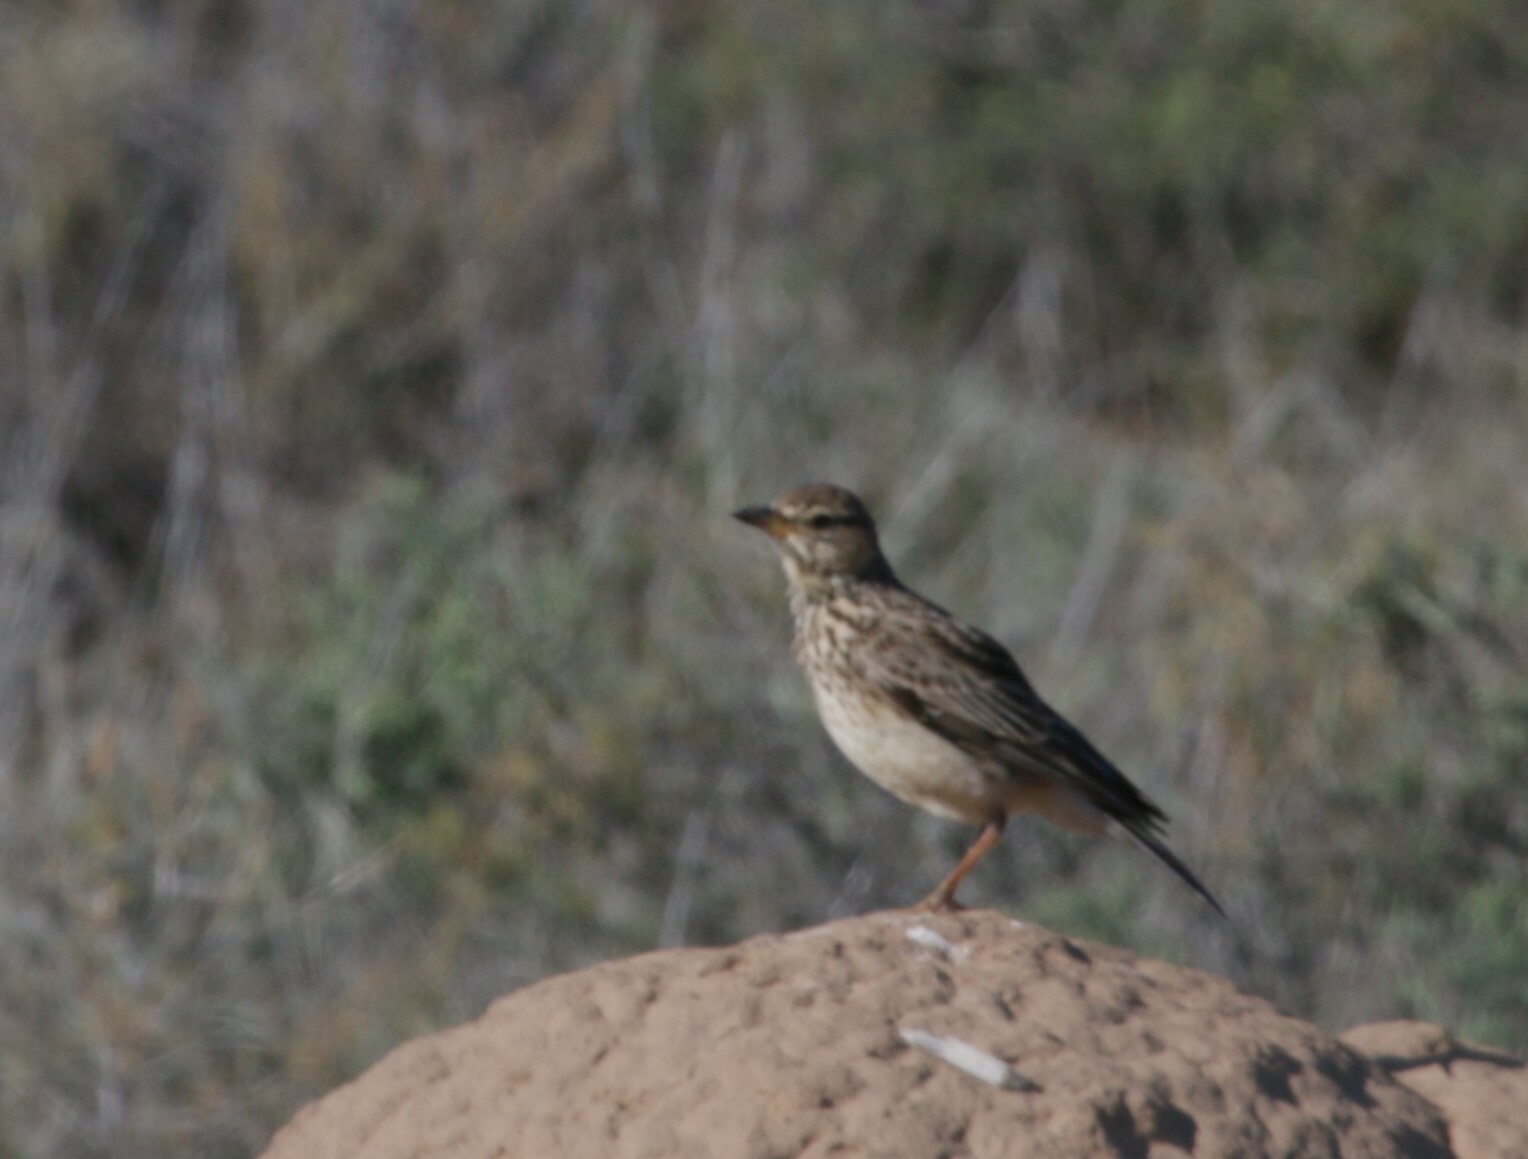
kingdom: Animalia
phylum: Chordata
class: Aves
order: Passeriformes
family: Alaudidae
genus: Galerida
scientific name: Galerida magnirostris
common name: Large-billed lark
